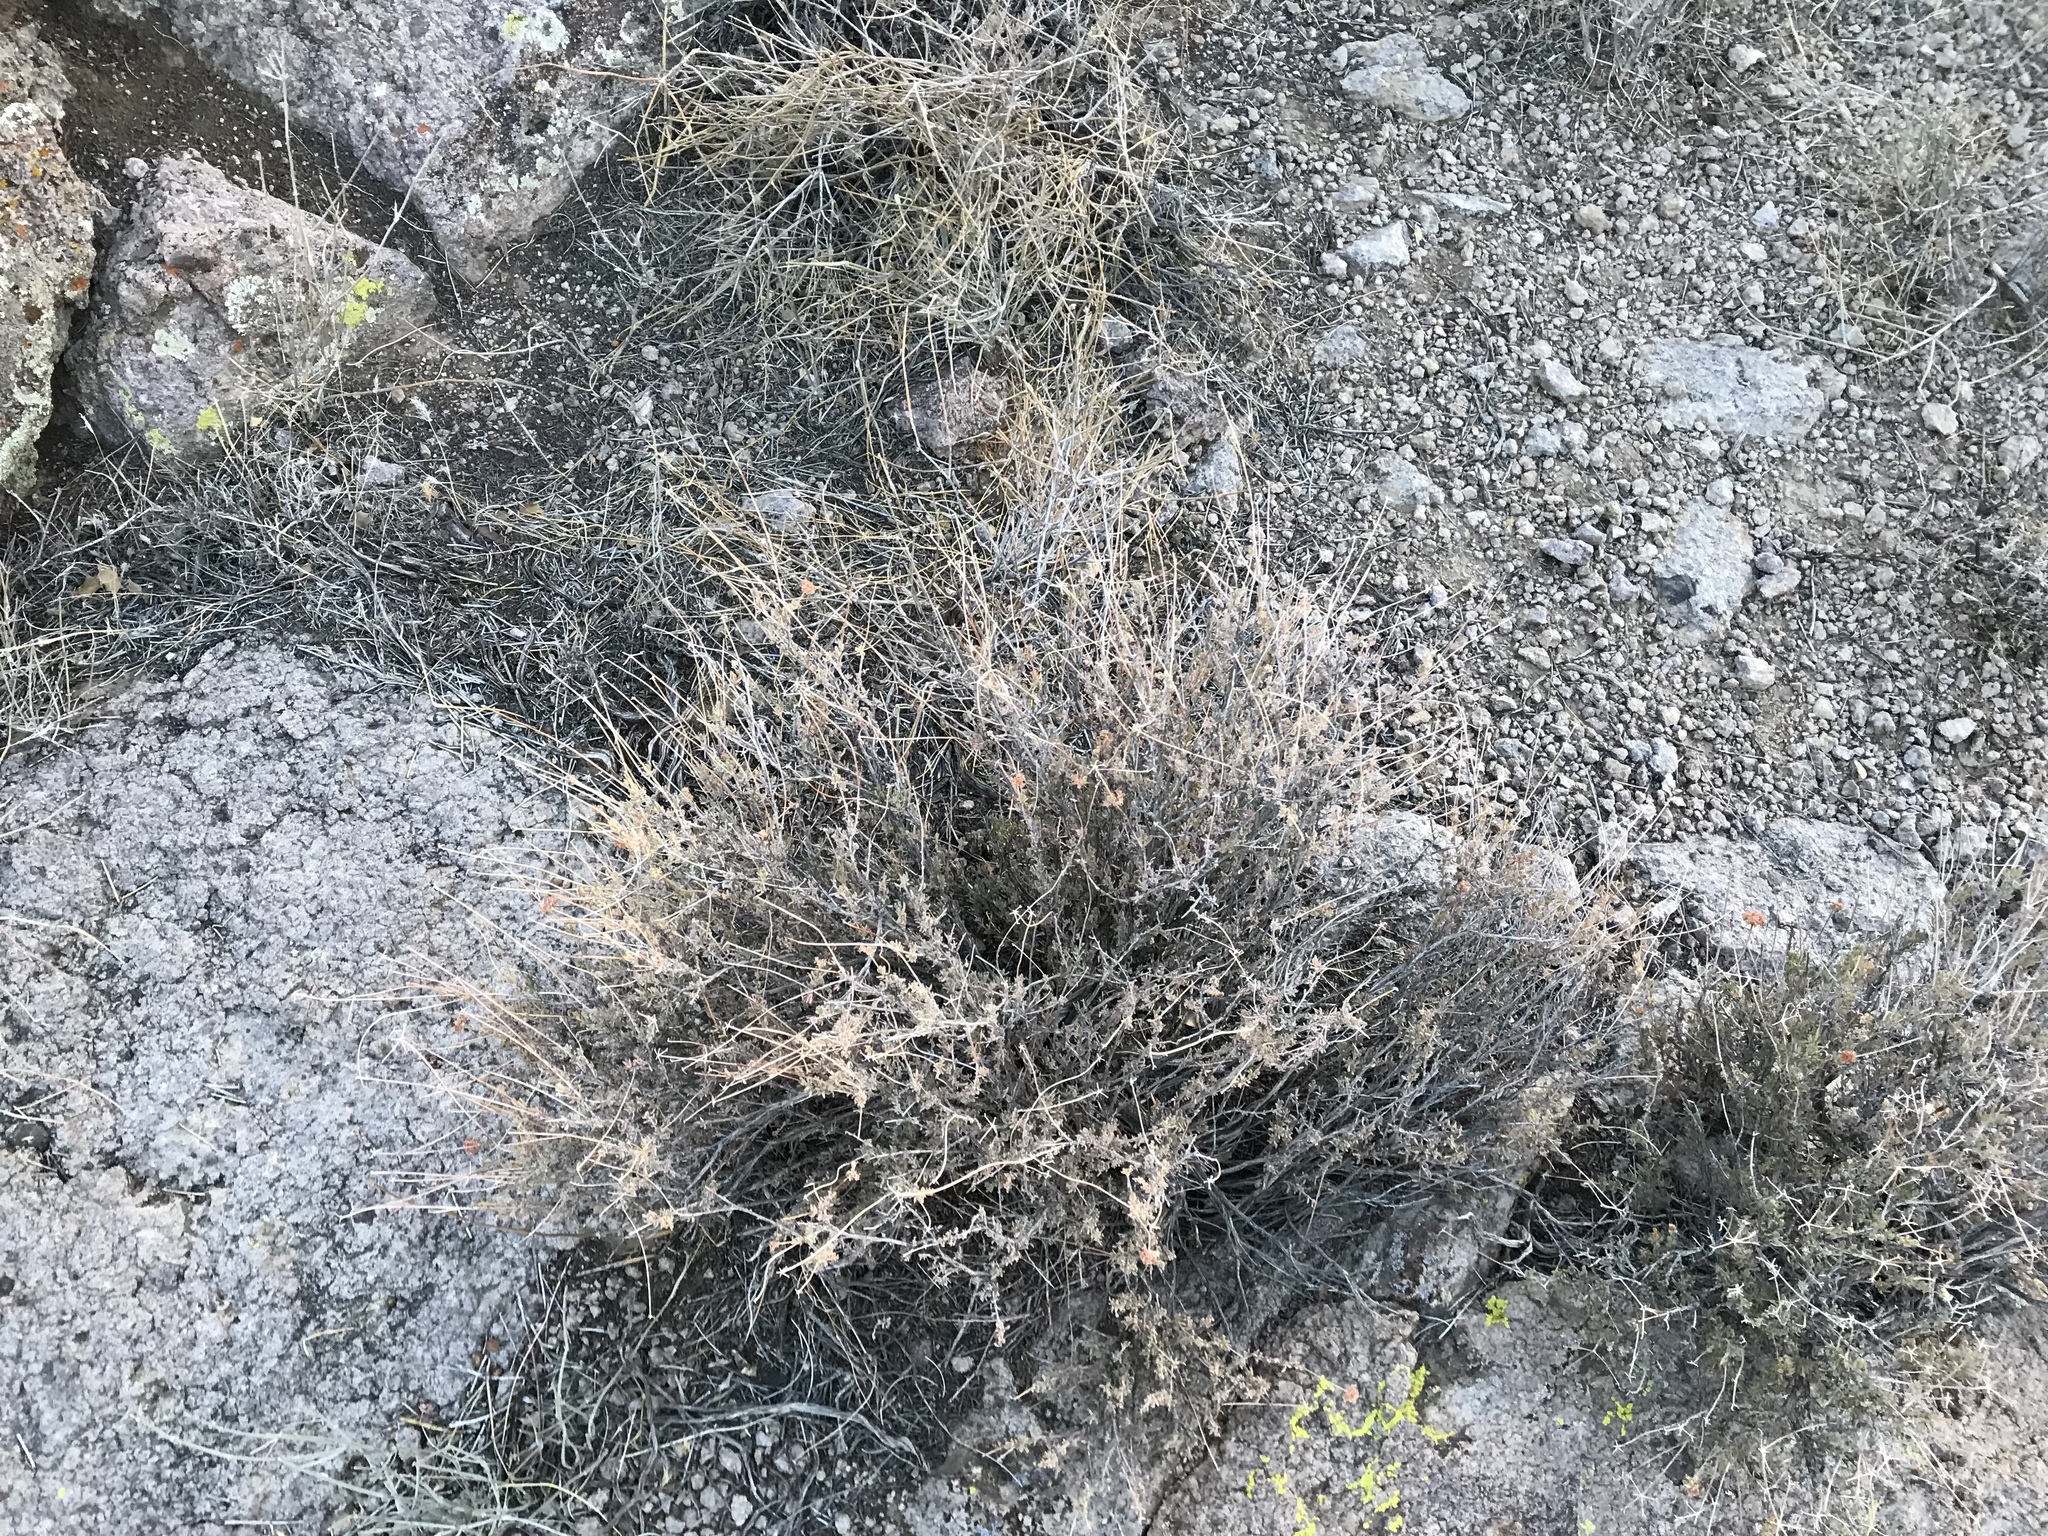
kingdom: Plantae
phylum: Tracheophyta
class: Magnoliopsida
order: Caryophyllales
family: Polygonaceae
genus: Eriogonum
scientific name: Eriogonum fasciculatum
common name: California wild buckwheat
